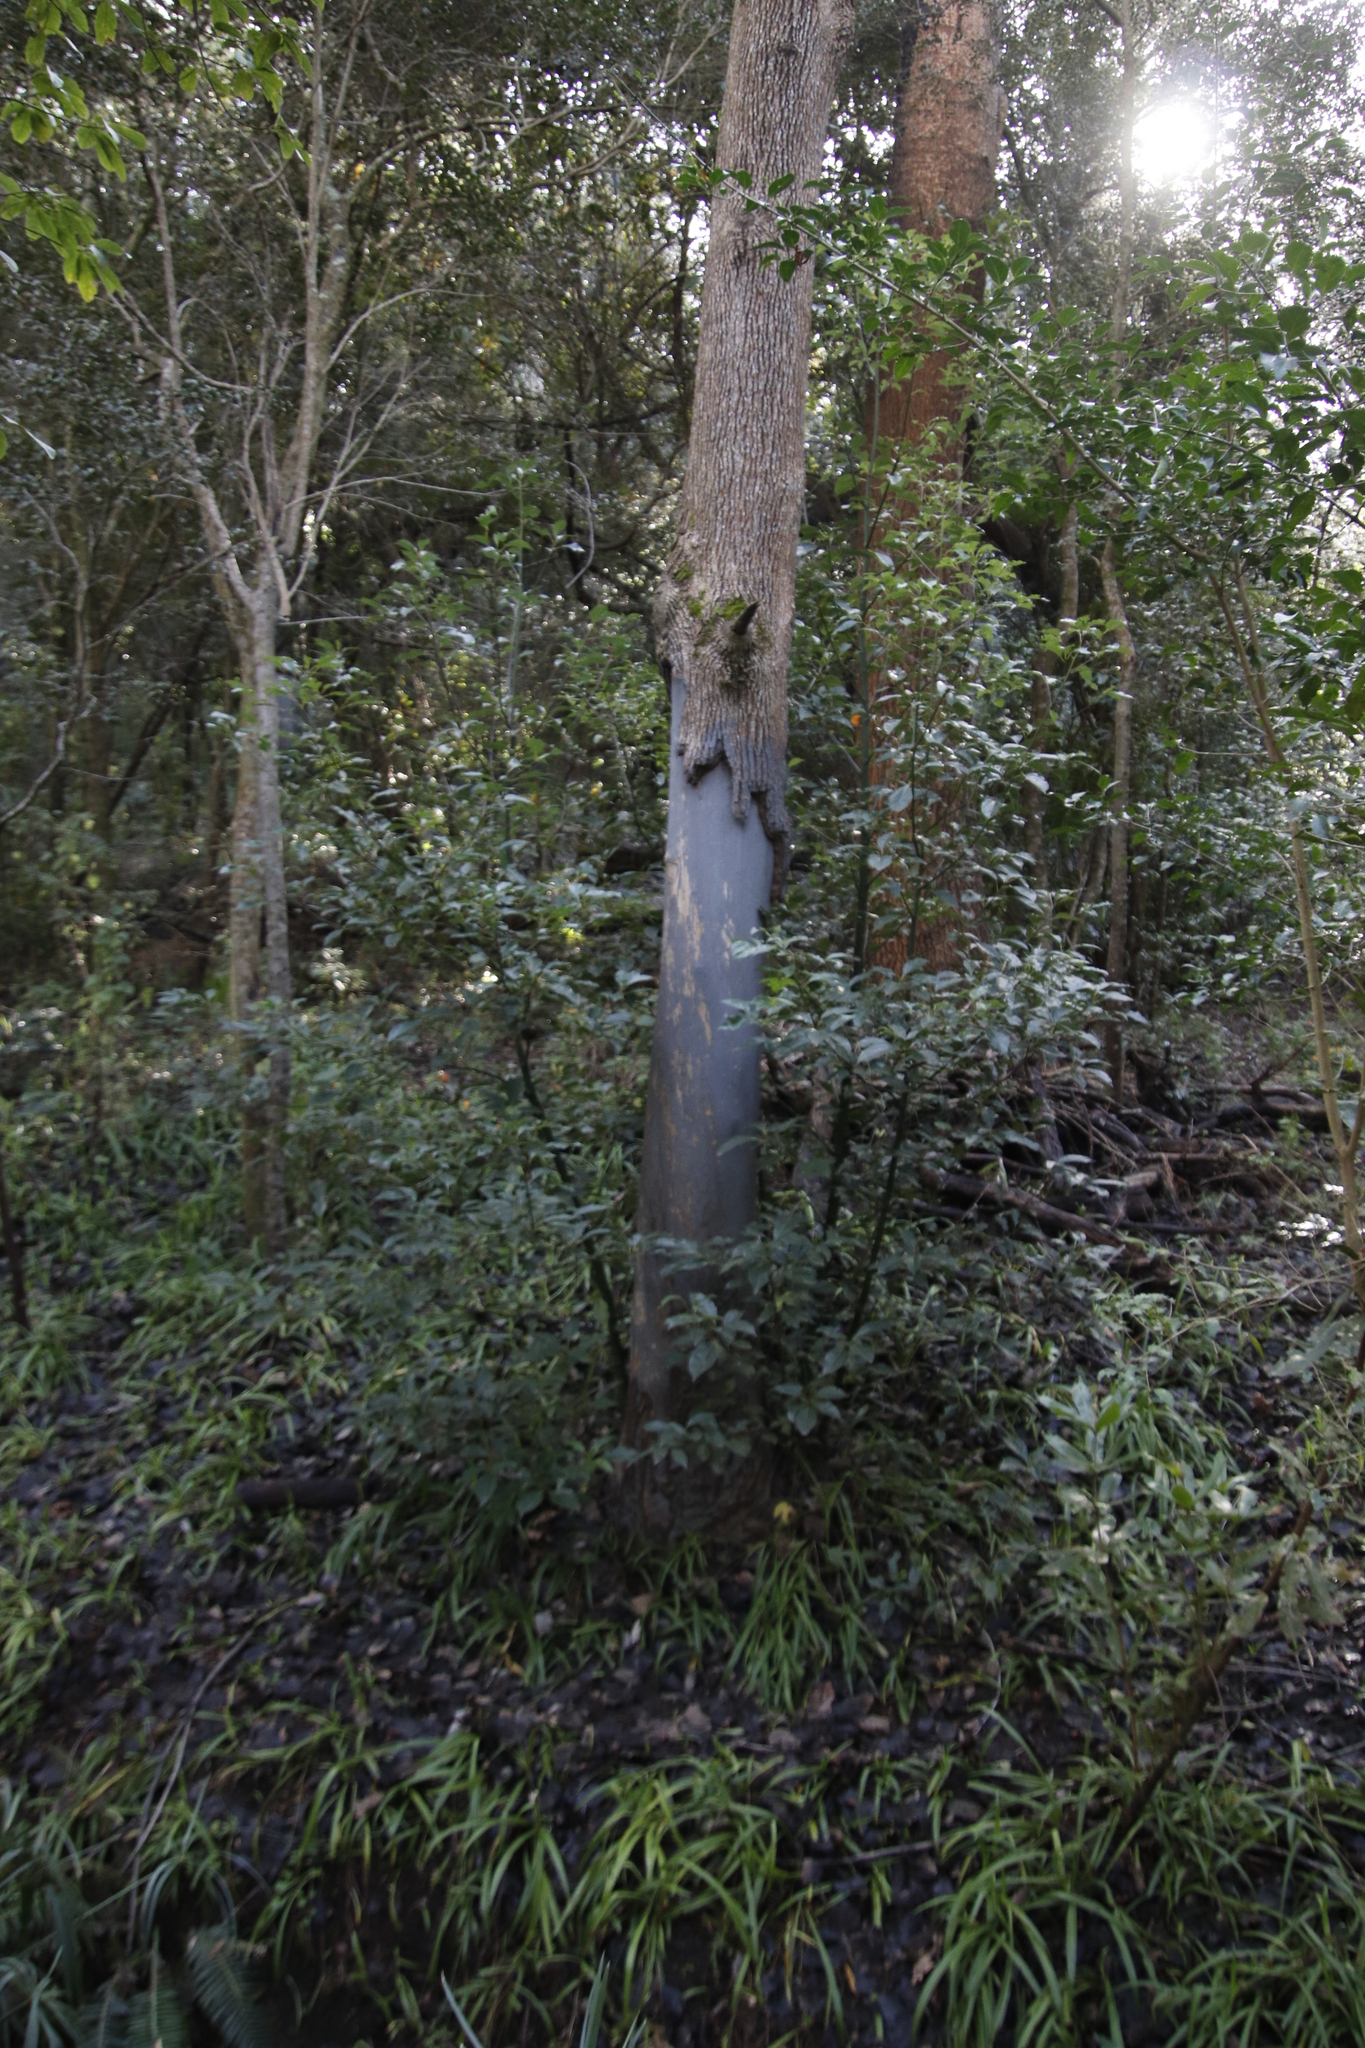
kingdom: Plantae
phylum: Tracheophyta
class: Magnoliopsida
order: Laurales
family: Lauraceae
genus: Cinnamomum
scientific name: Cinnamomum camphora
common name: Camphortree
